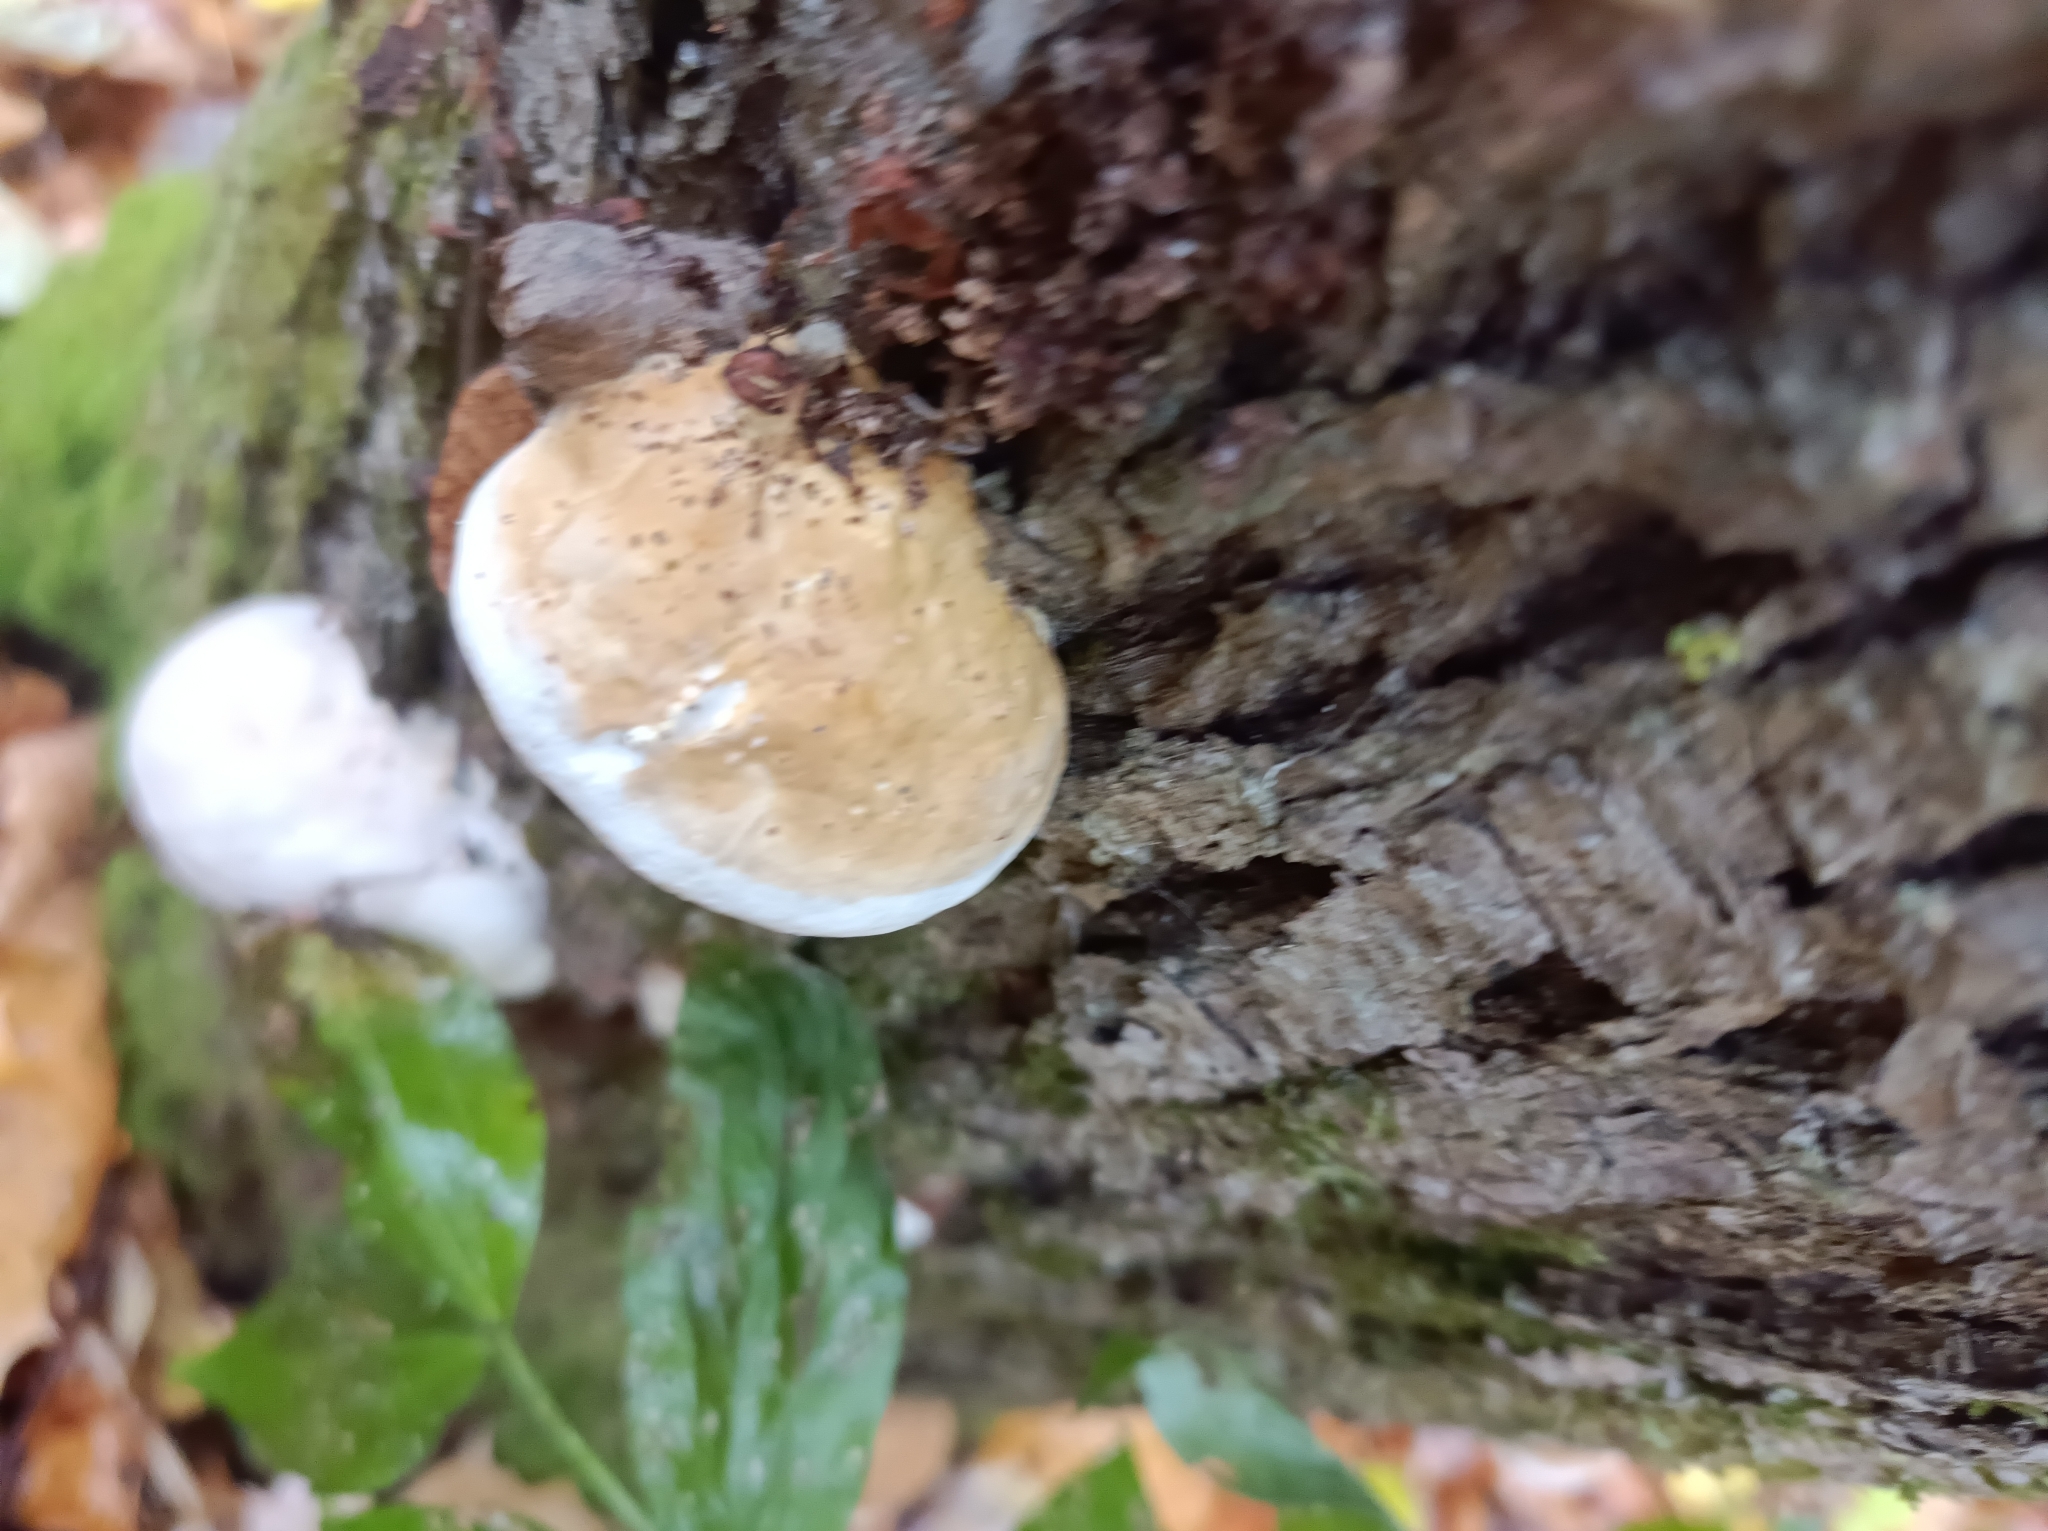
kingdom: Fungi
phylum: Basidiomycota
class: Agaricomycetes
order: Polyporales
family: Fomitopsidaceae
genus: Fomitopsis
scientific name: Fomitopsis pinicola
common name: Red-belted bracket
